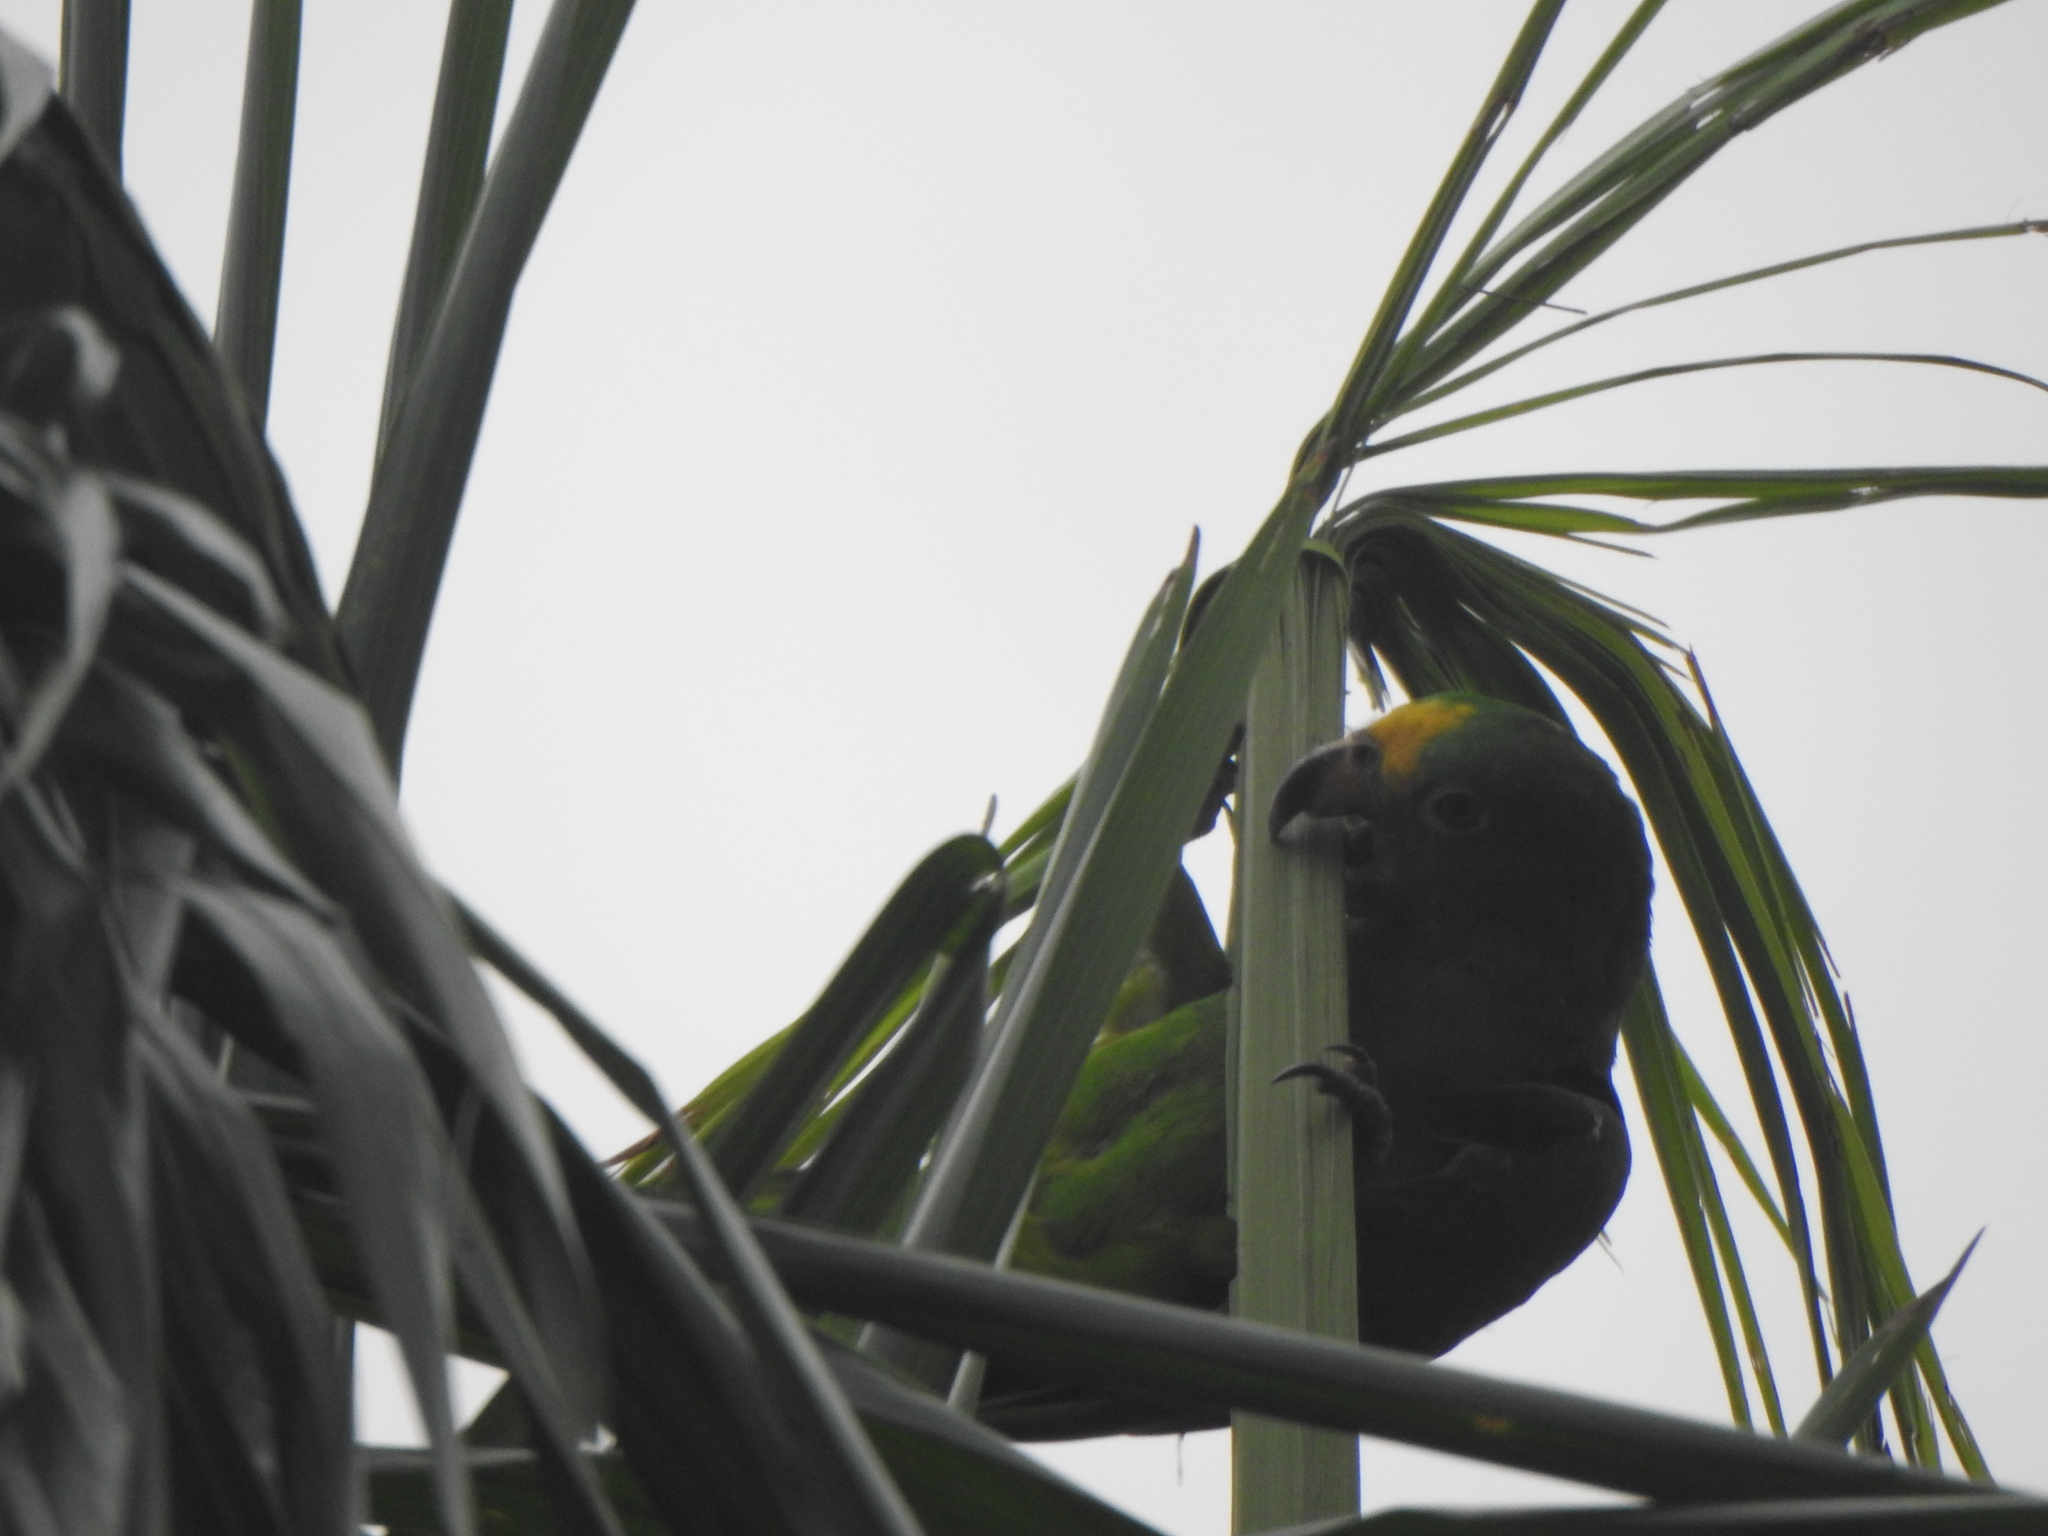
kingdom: Animalia
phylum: Chordata
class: Aves
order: Psittaciformes
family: Psittacidae
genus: Amazona
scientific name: Amazona ochrocephala
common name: Yellow-crowned amazon
